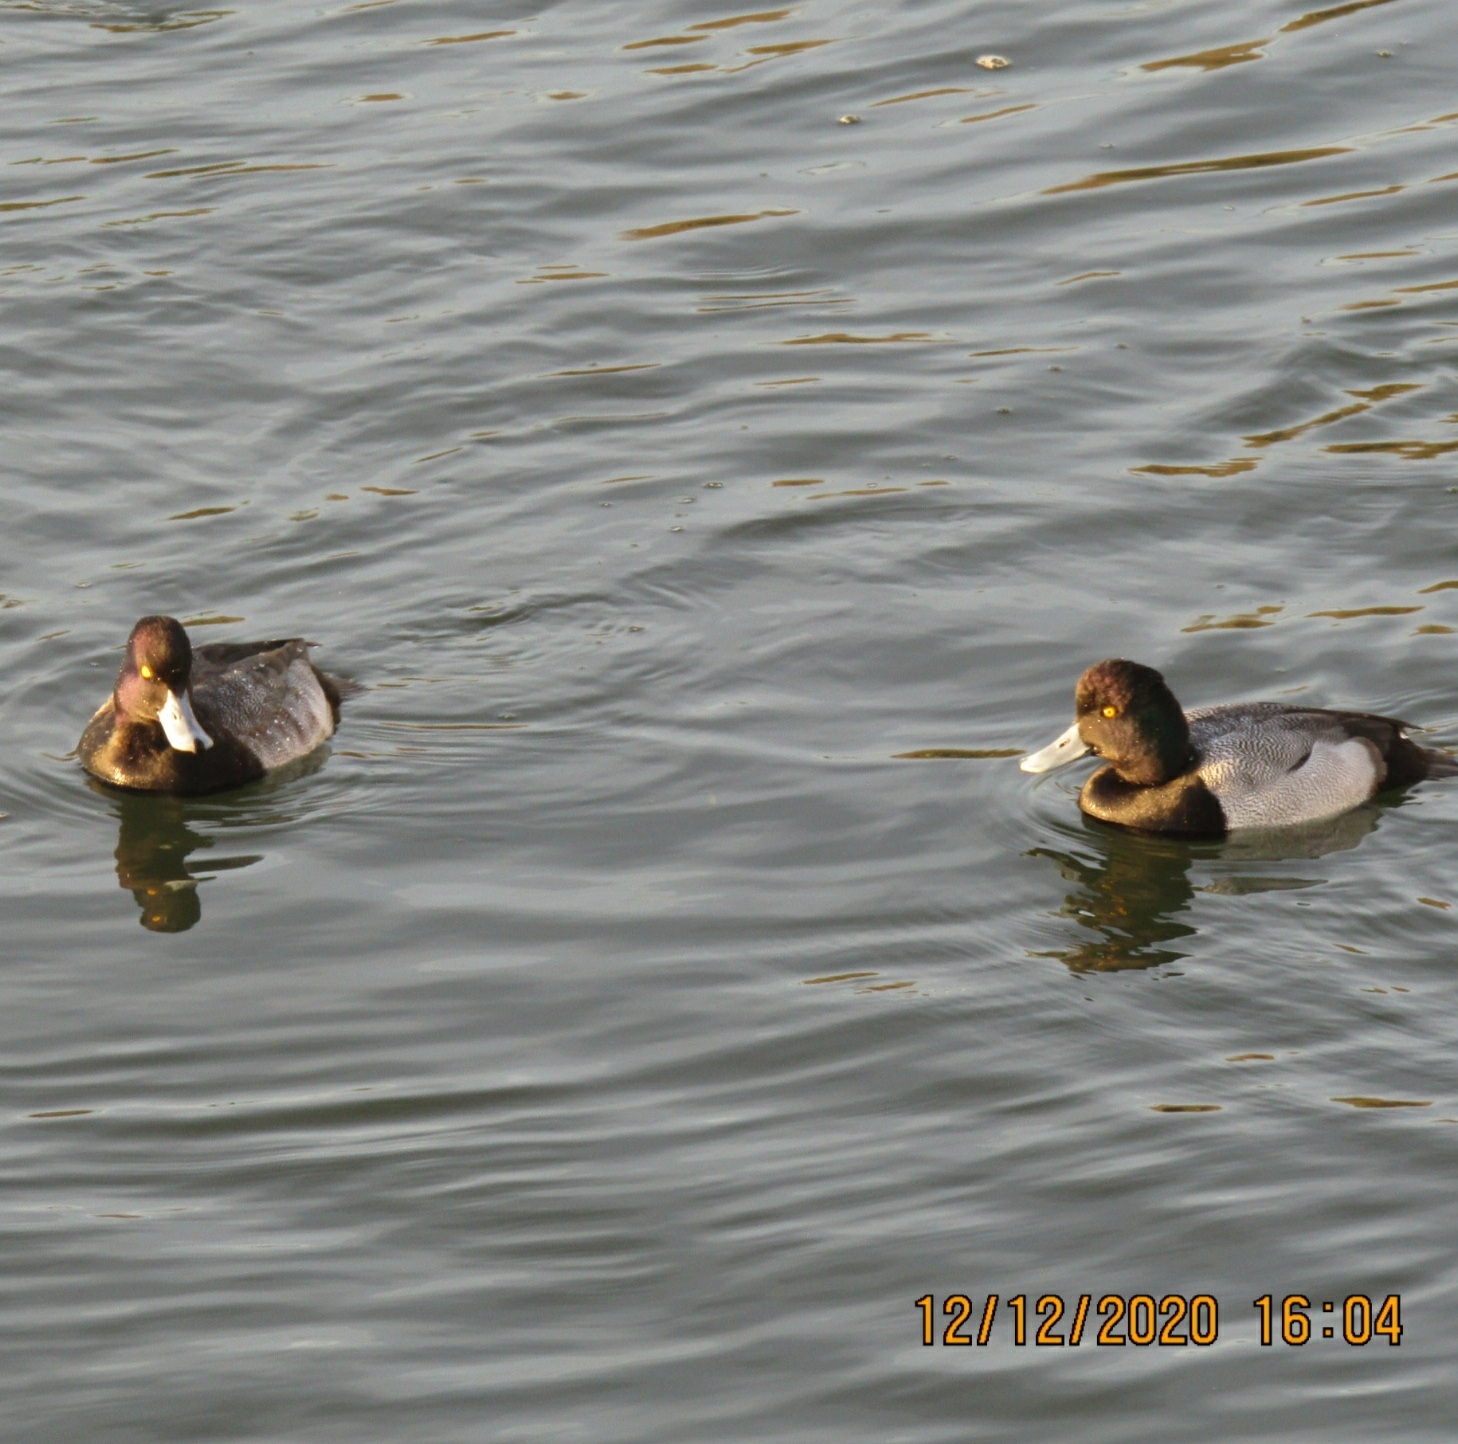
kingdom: Animalia
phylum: Chordata
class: Aves
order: Anseriformes
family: Anatidae
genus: Aythya
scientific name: Aythya affinis
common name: Lesser scaup
